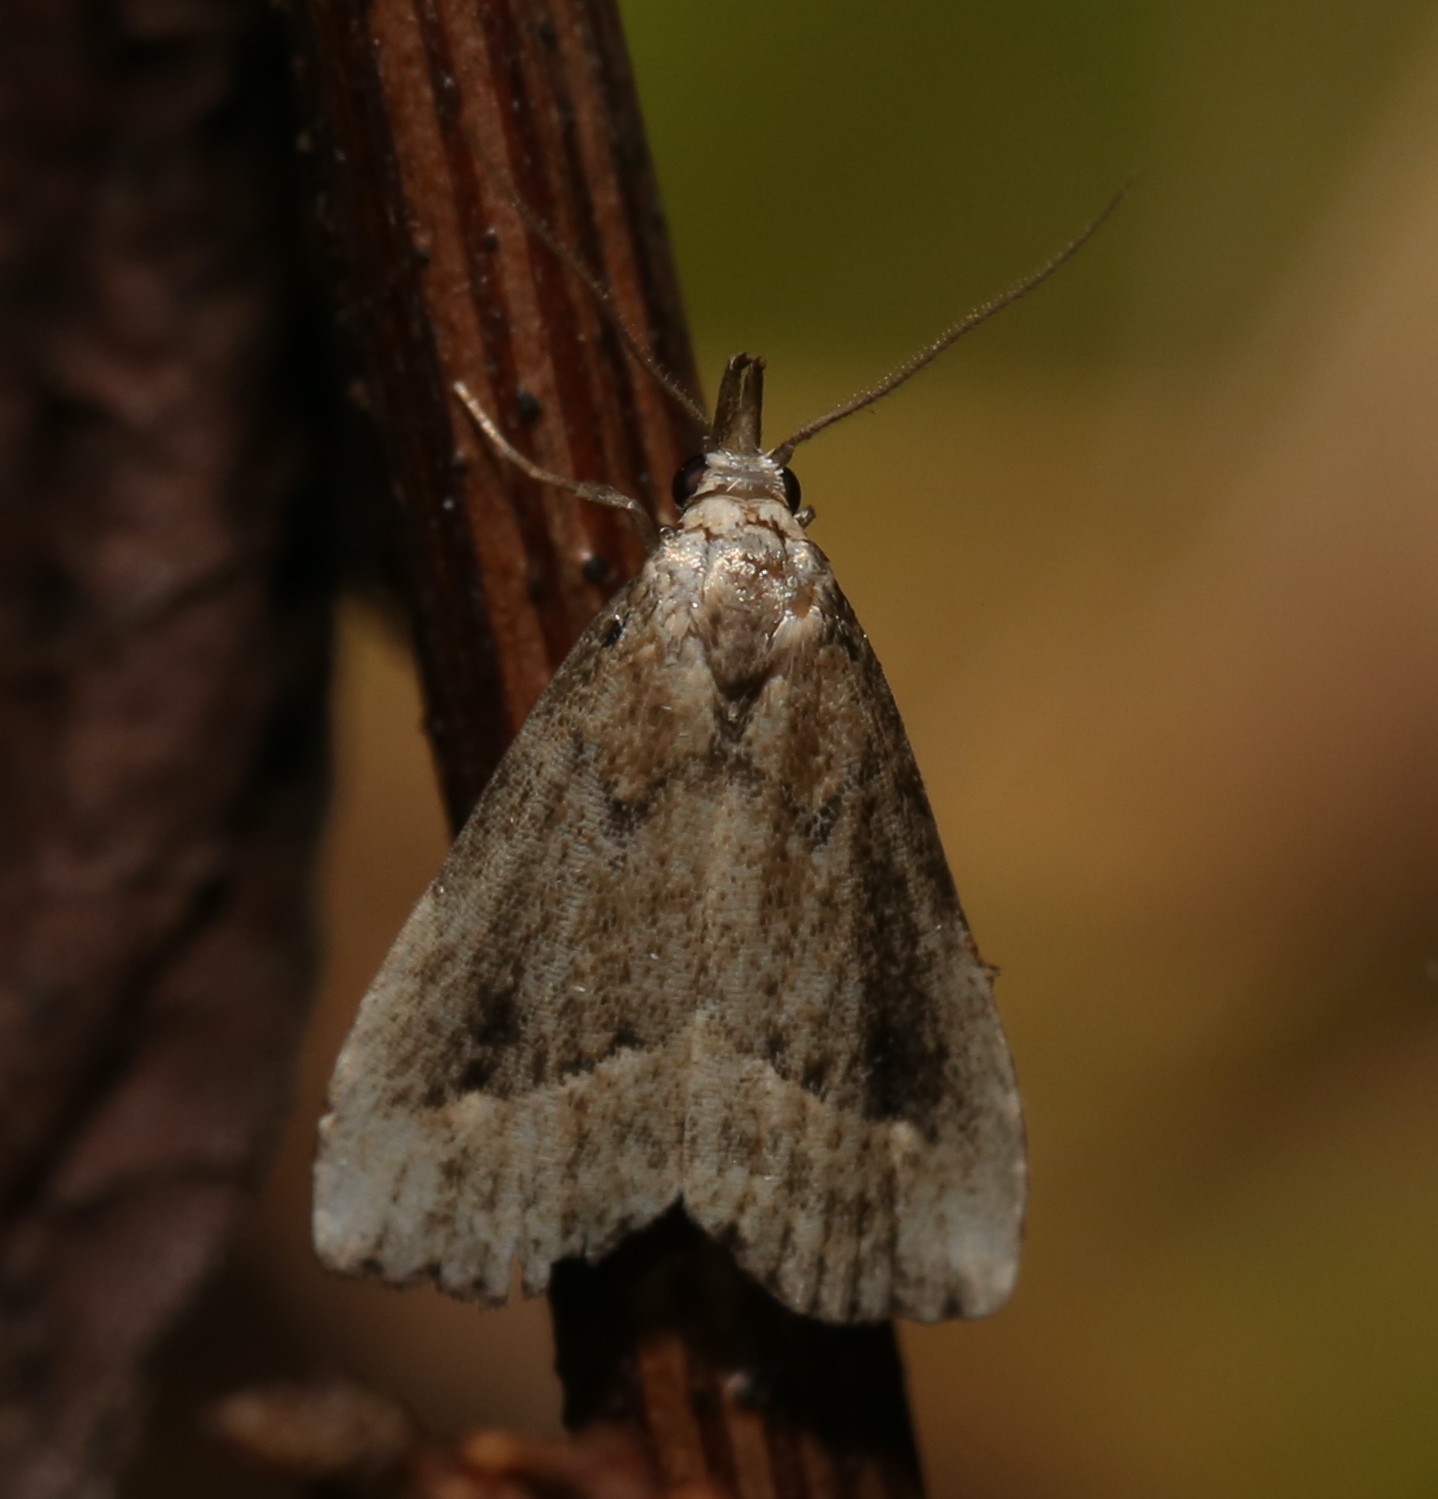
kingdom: Animalia
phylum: Arthropoda
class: Insecta
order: Lepidoptera
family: Erebidae
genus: Schrankia
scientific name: Schrankia
